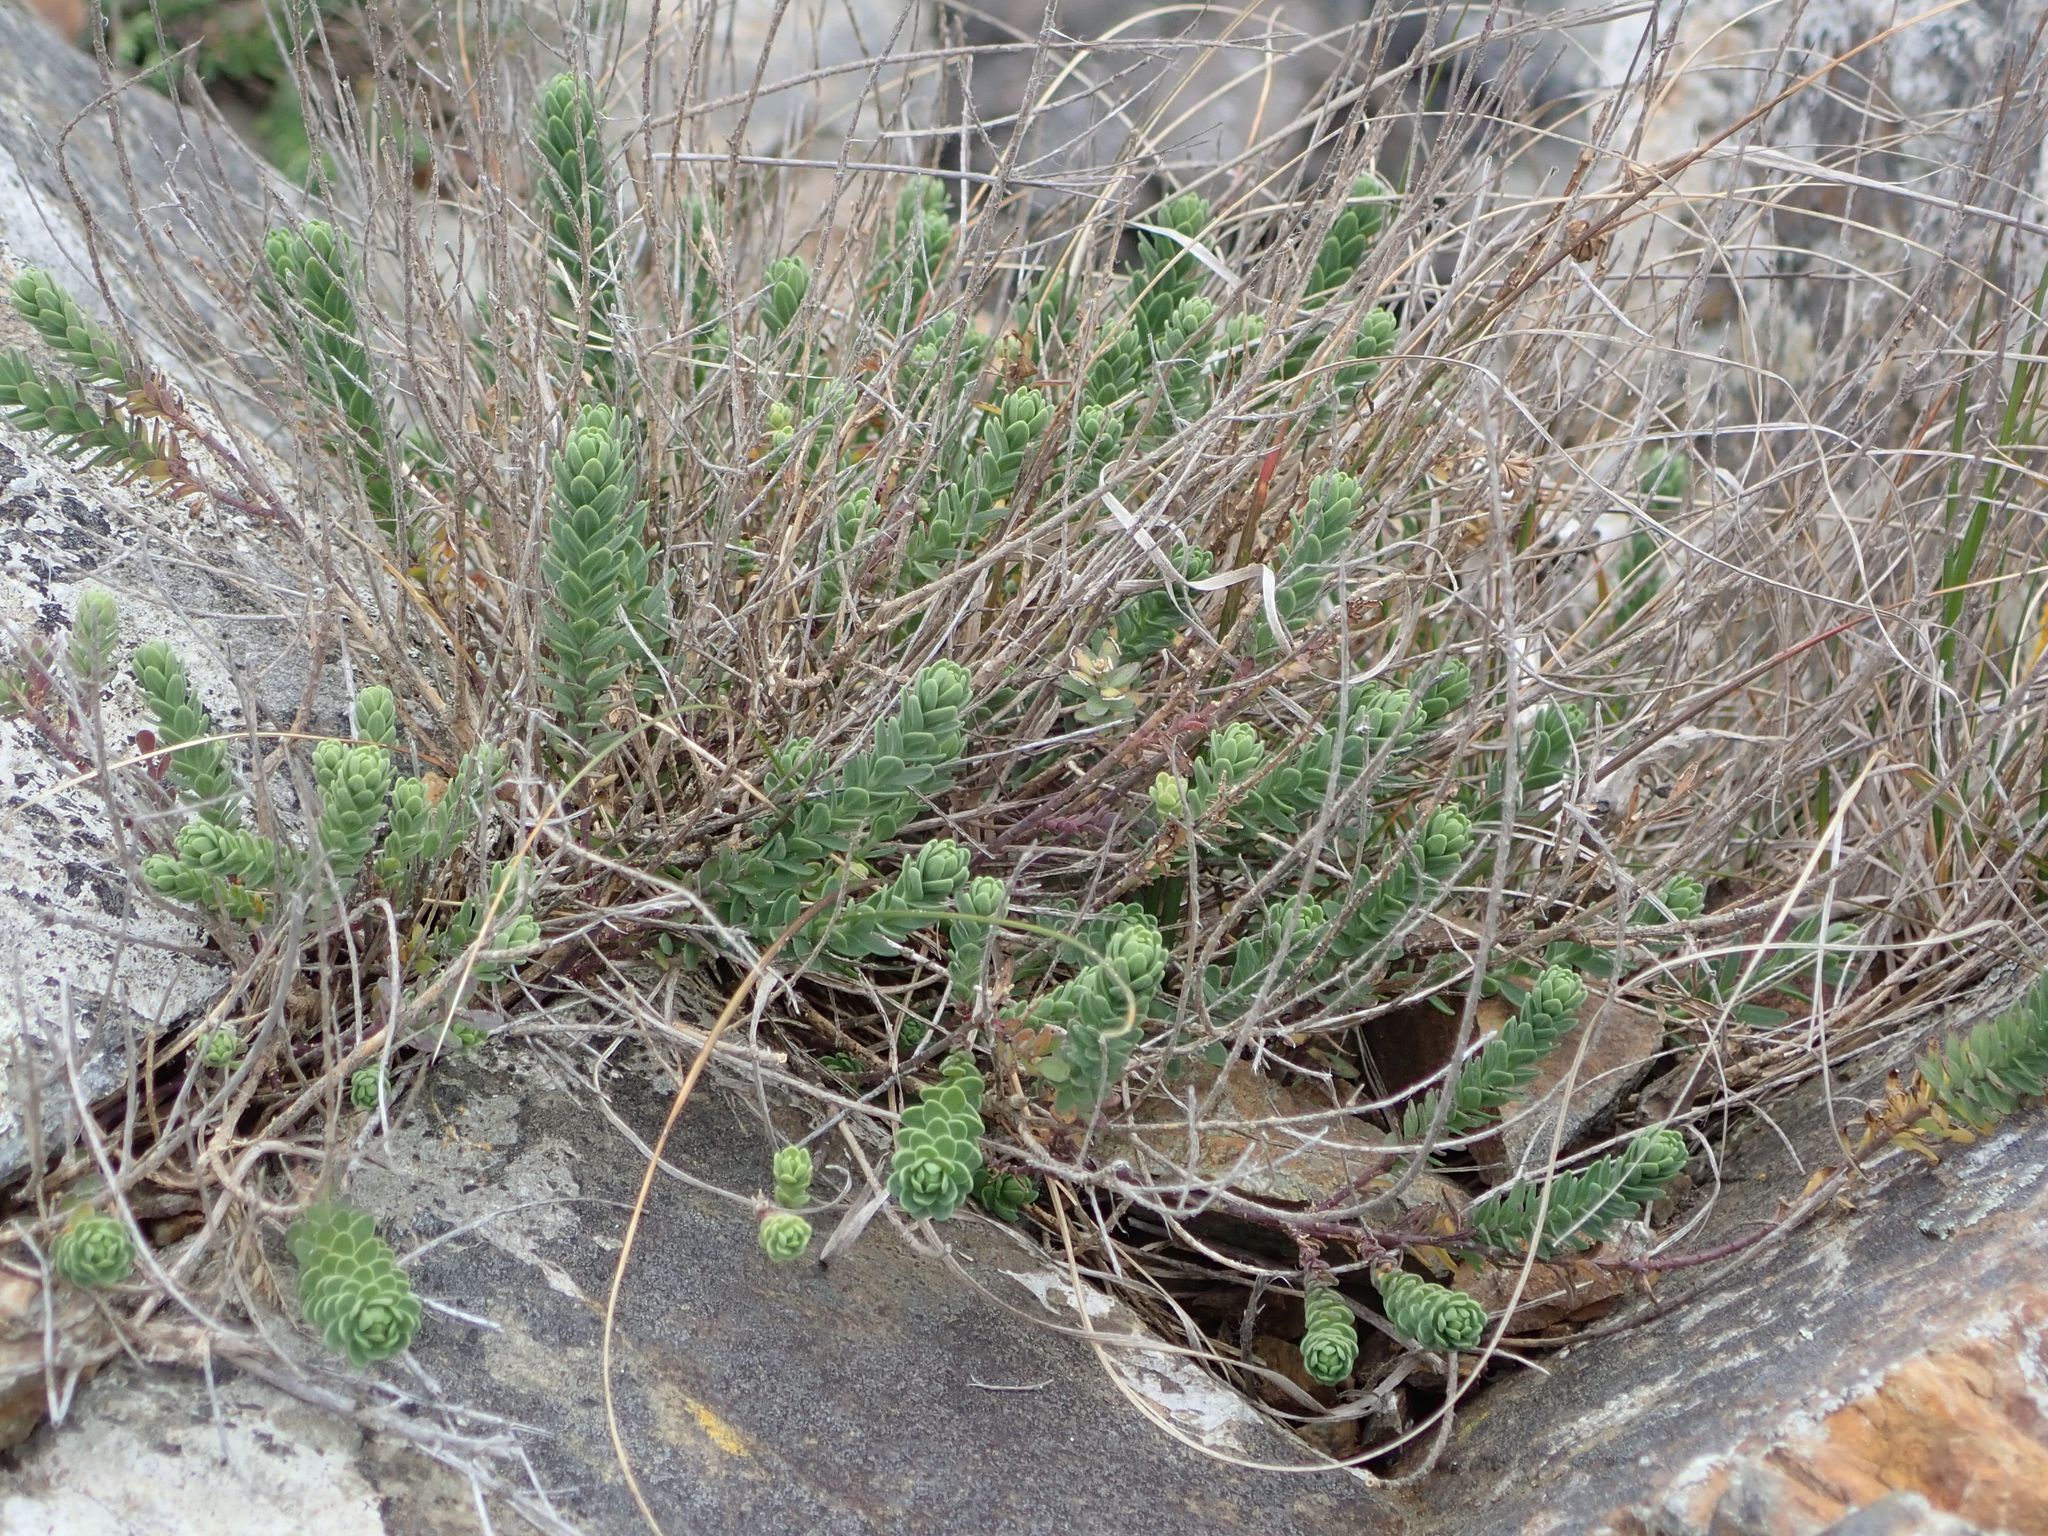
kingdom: Plantae
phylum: Tracheophyta
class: Magnoliopsida
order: Malpighiales
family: Linaceae
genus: Linum
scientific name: Linum monogynum
